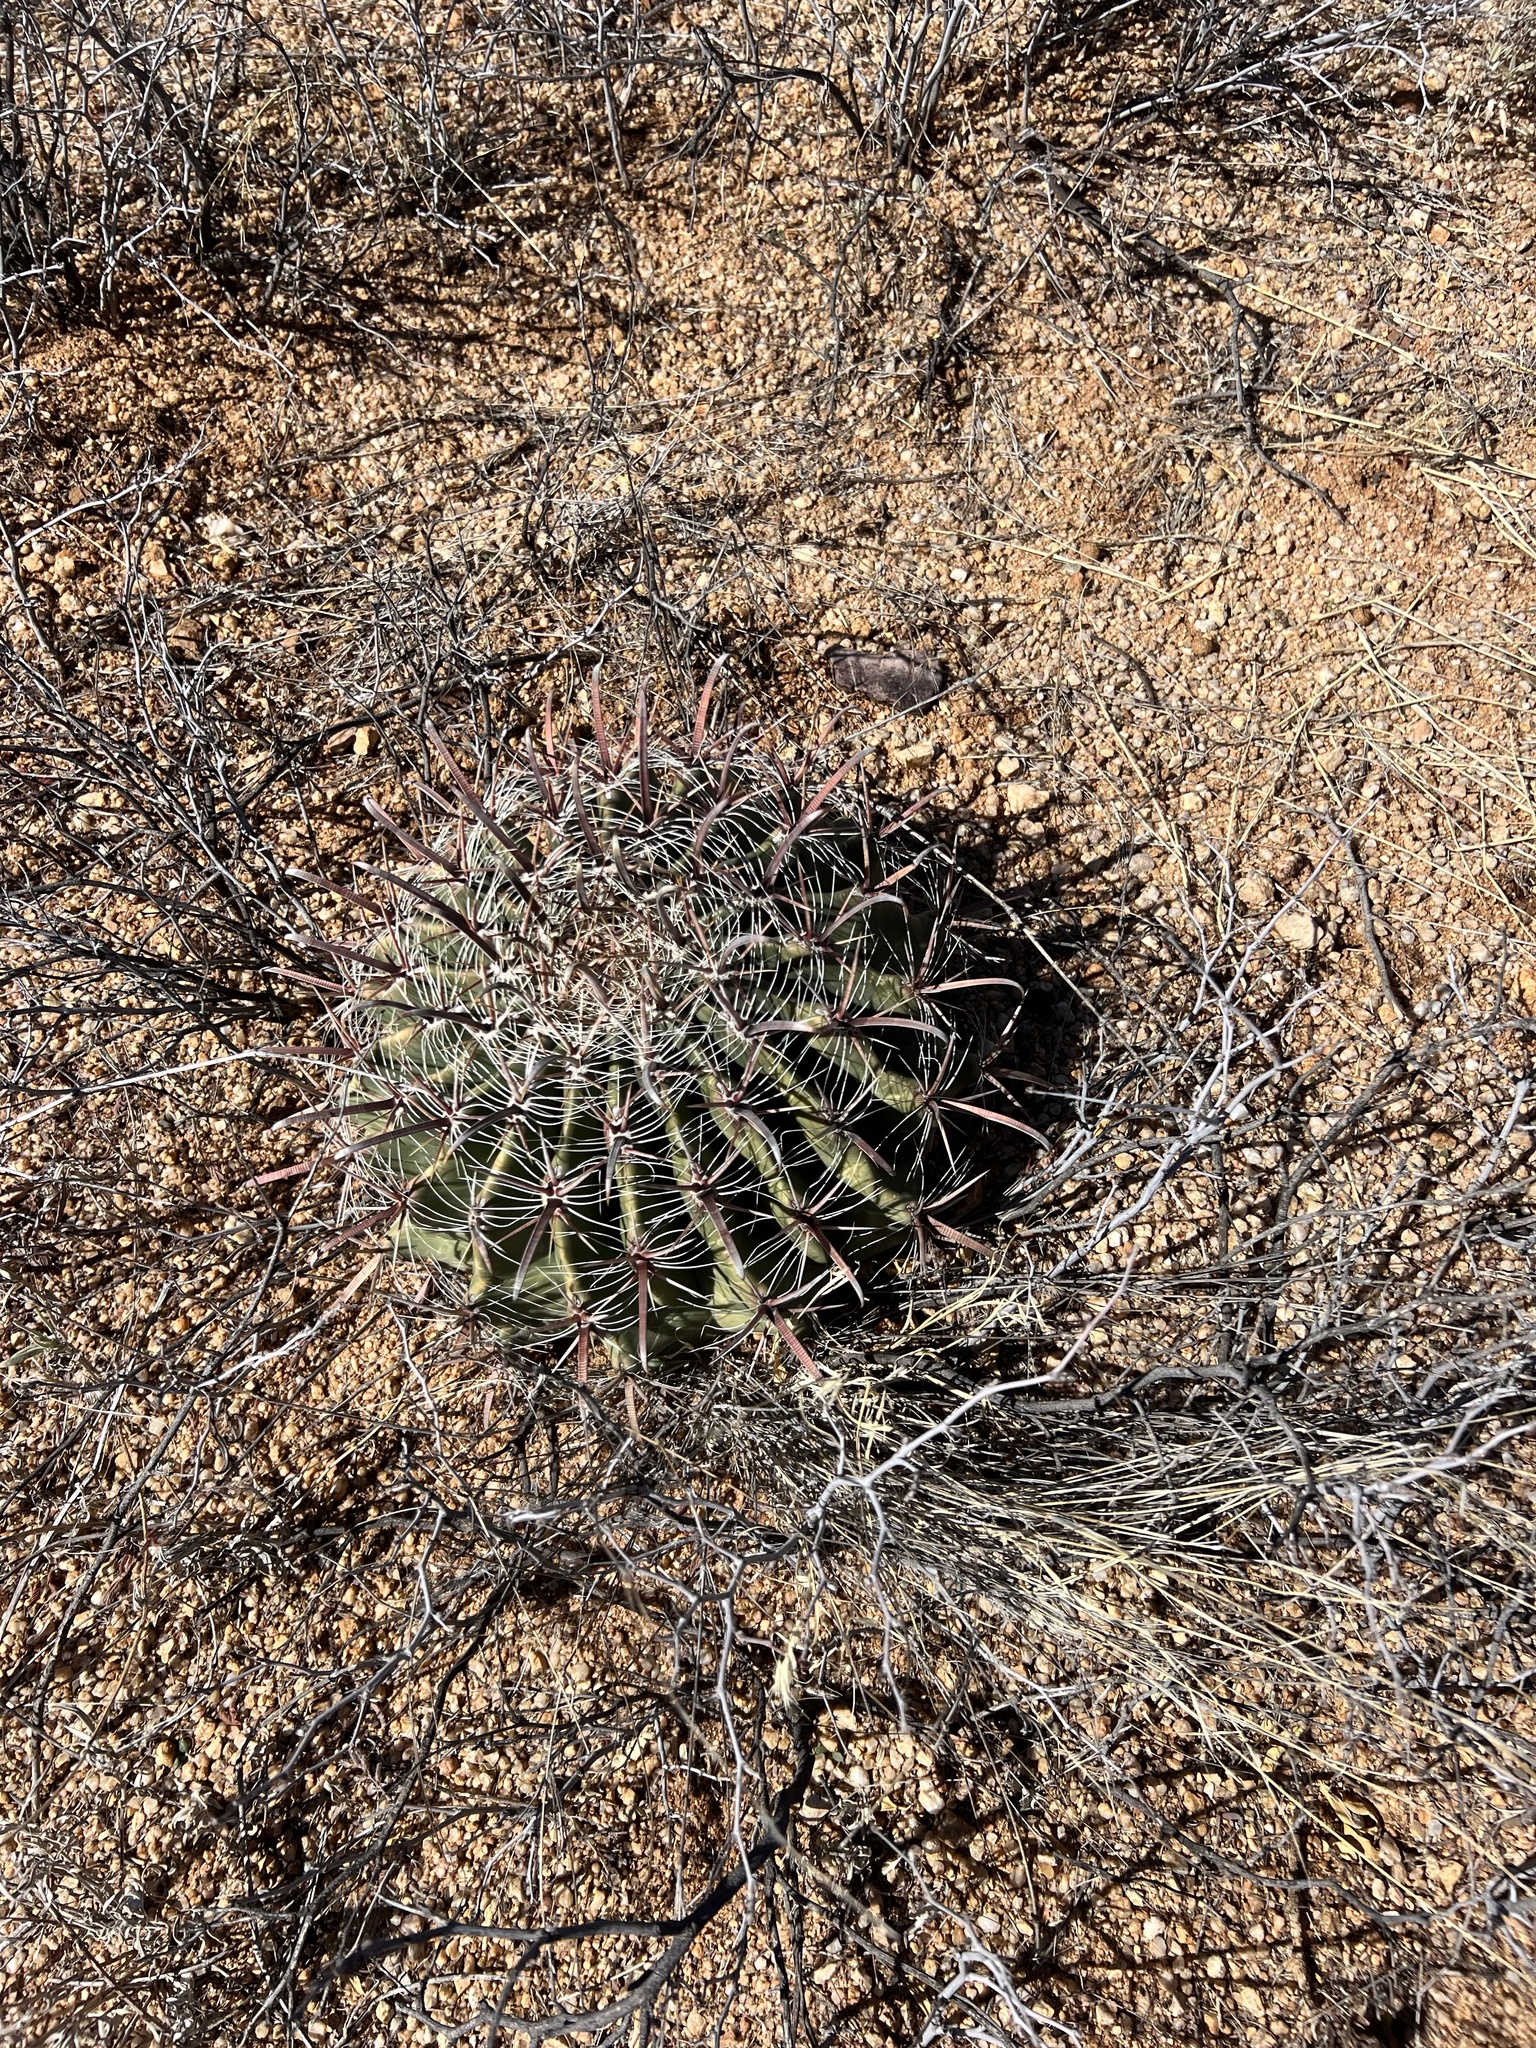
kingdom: Plantae
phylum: Tracheophyta
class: Magnoliopsida
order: Caryophyllales
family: Cactaceae
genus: Ferocactus
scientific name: Ferocactus wislizeni
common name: Candy barrel cactus
